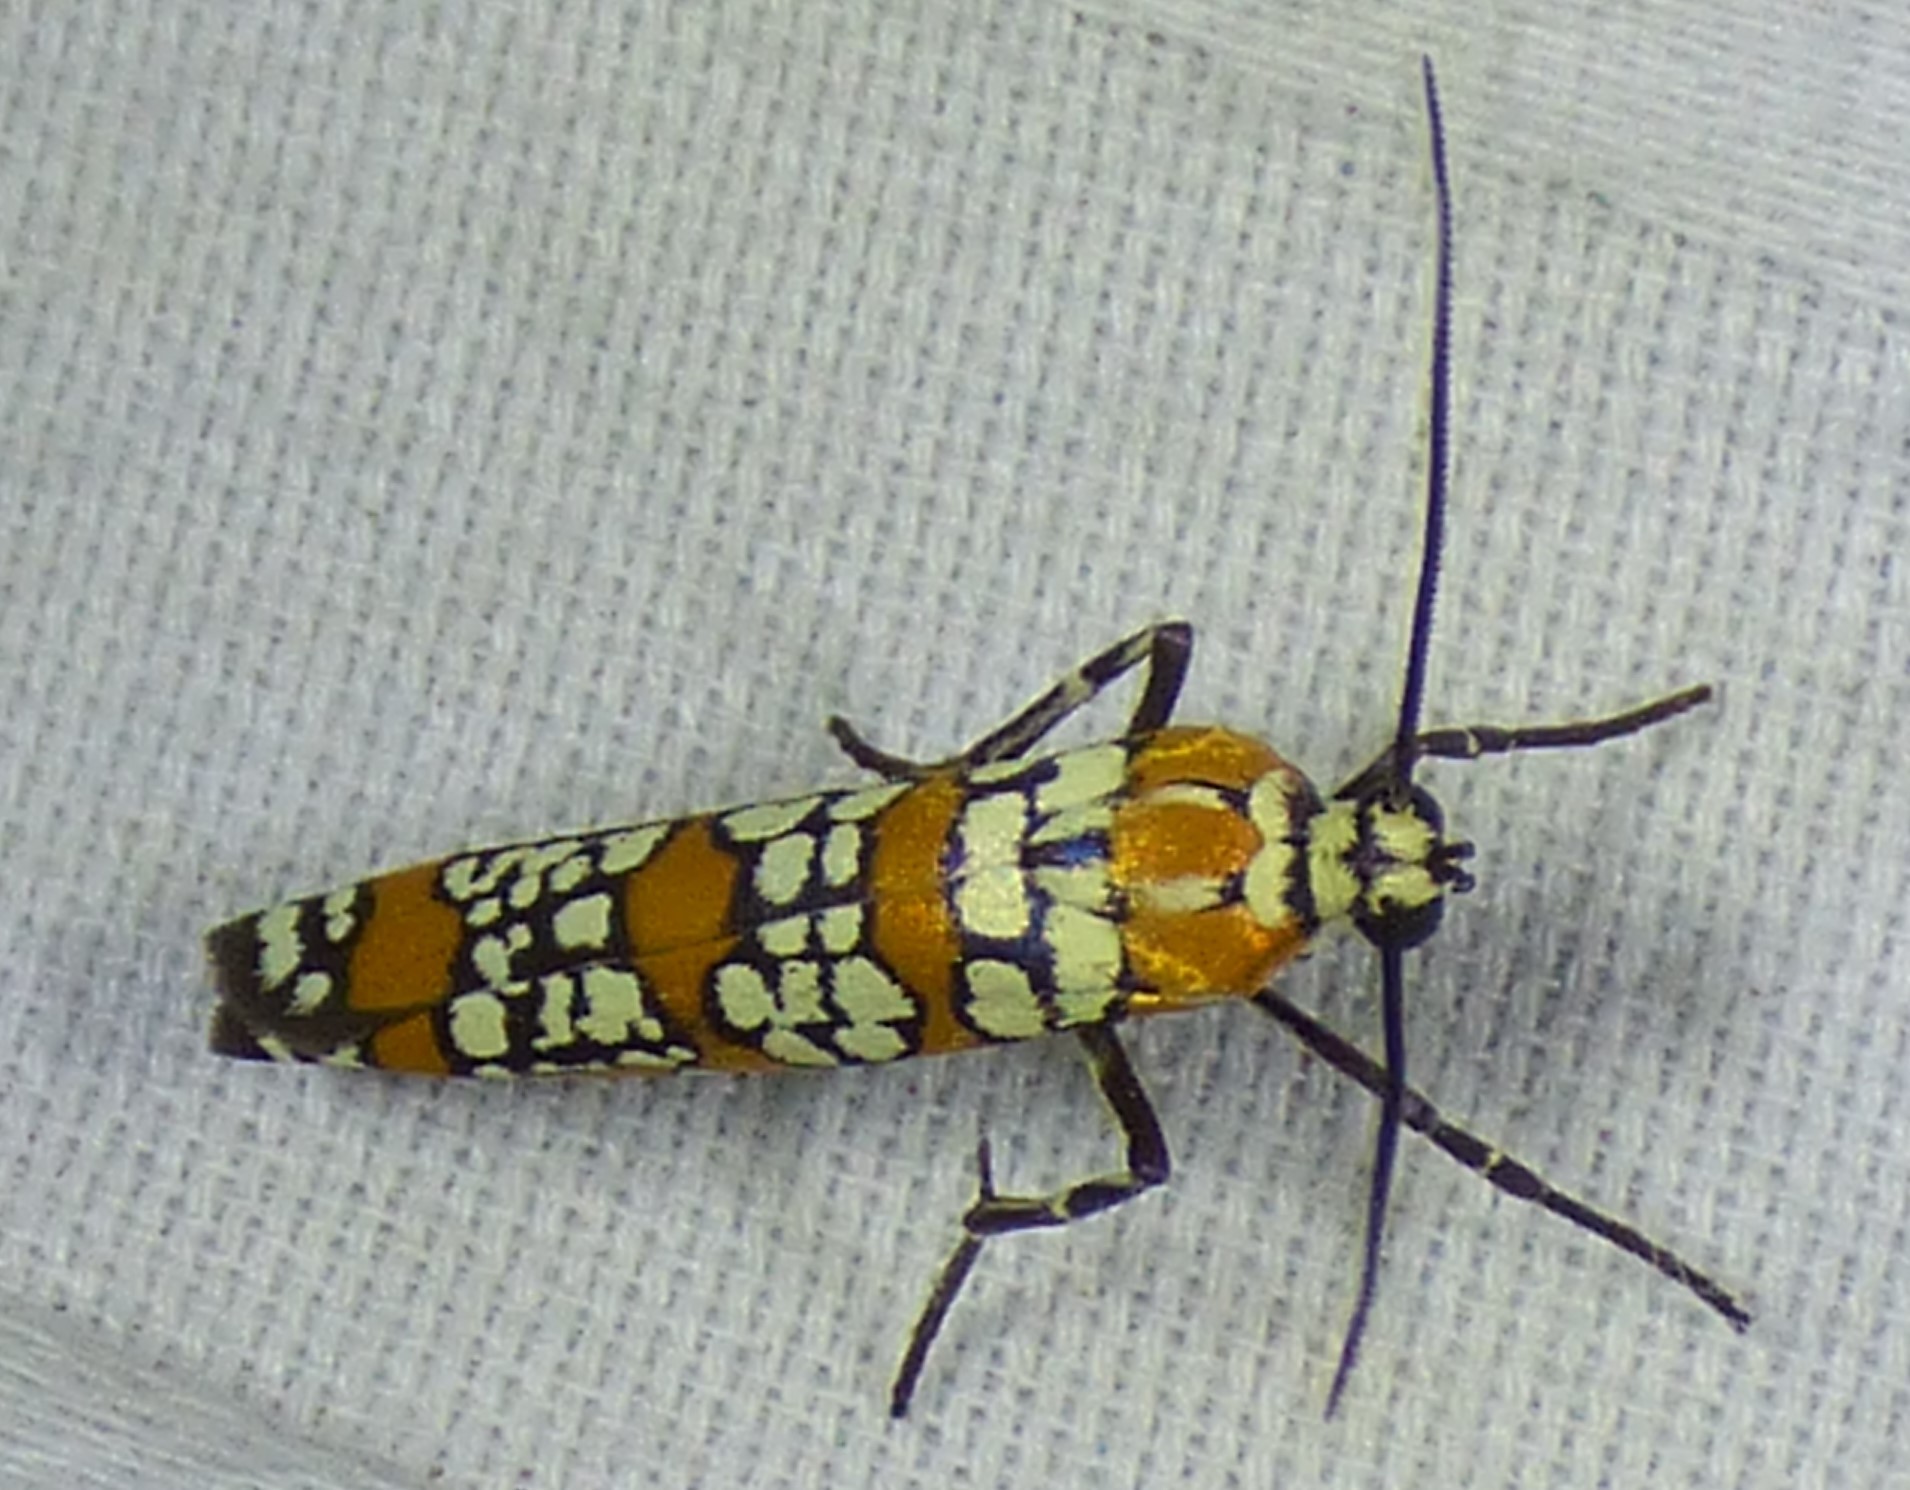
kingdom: Animalia
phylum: Arthropoda
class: Insecta
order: Lepidoptera
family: Attevidae
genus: Atteva
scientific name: Atteva punctella
